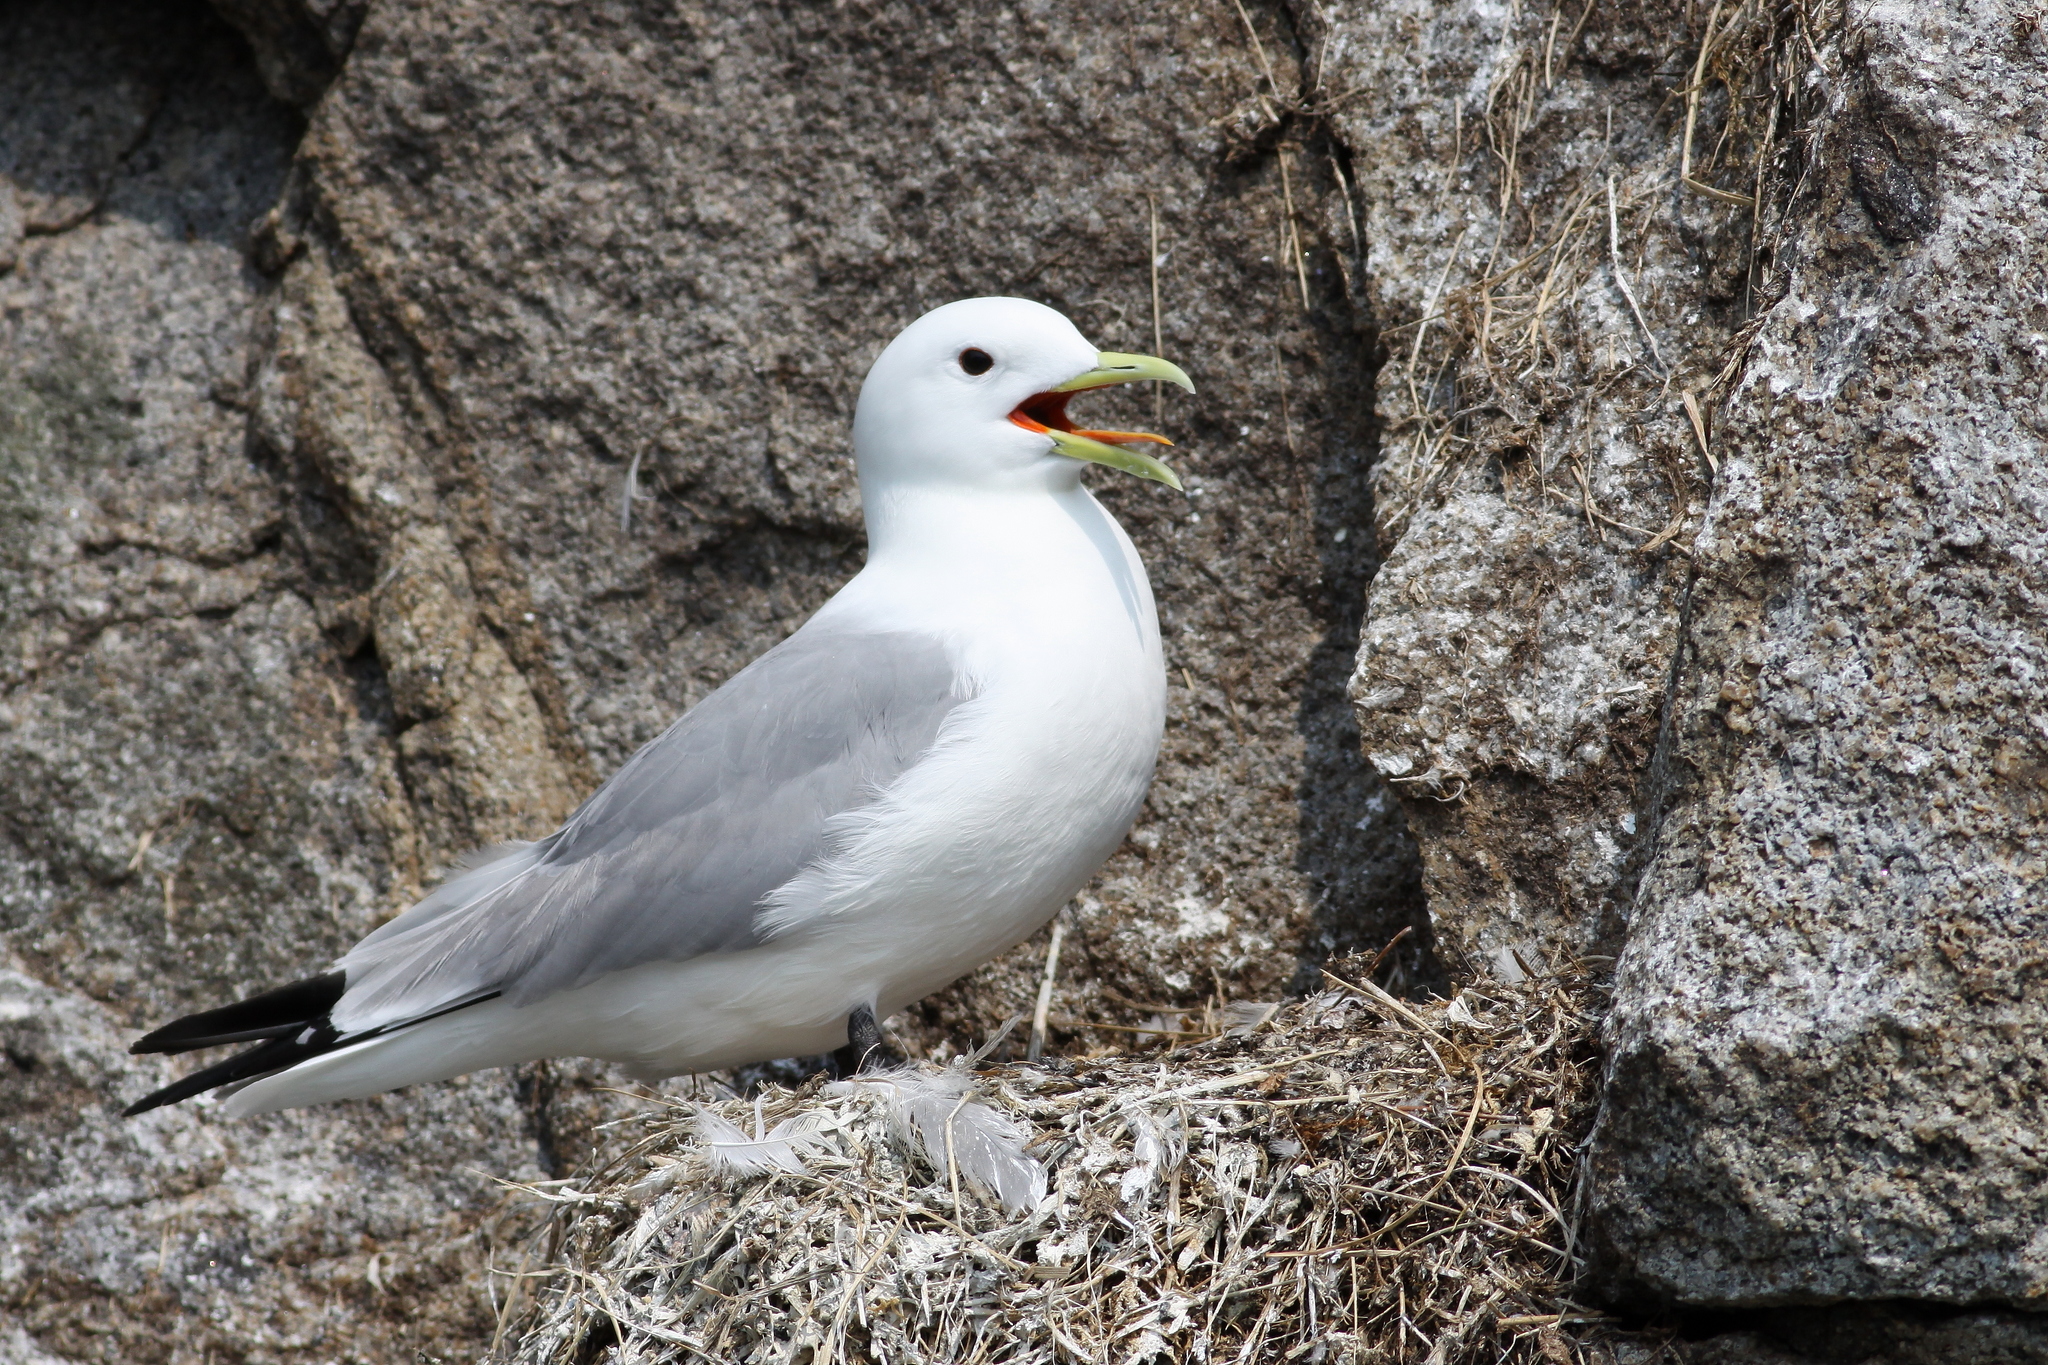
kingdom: Animalia
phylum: Chordata
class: Aves
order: Charadriiformes
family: Laridae
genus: Rissa
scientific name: Rissa tridactyla
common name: Black-legged kittiwake
